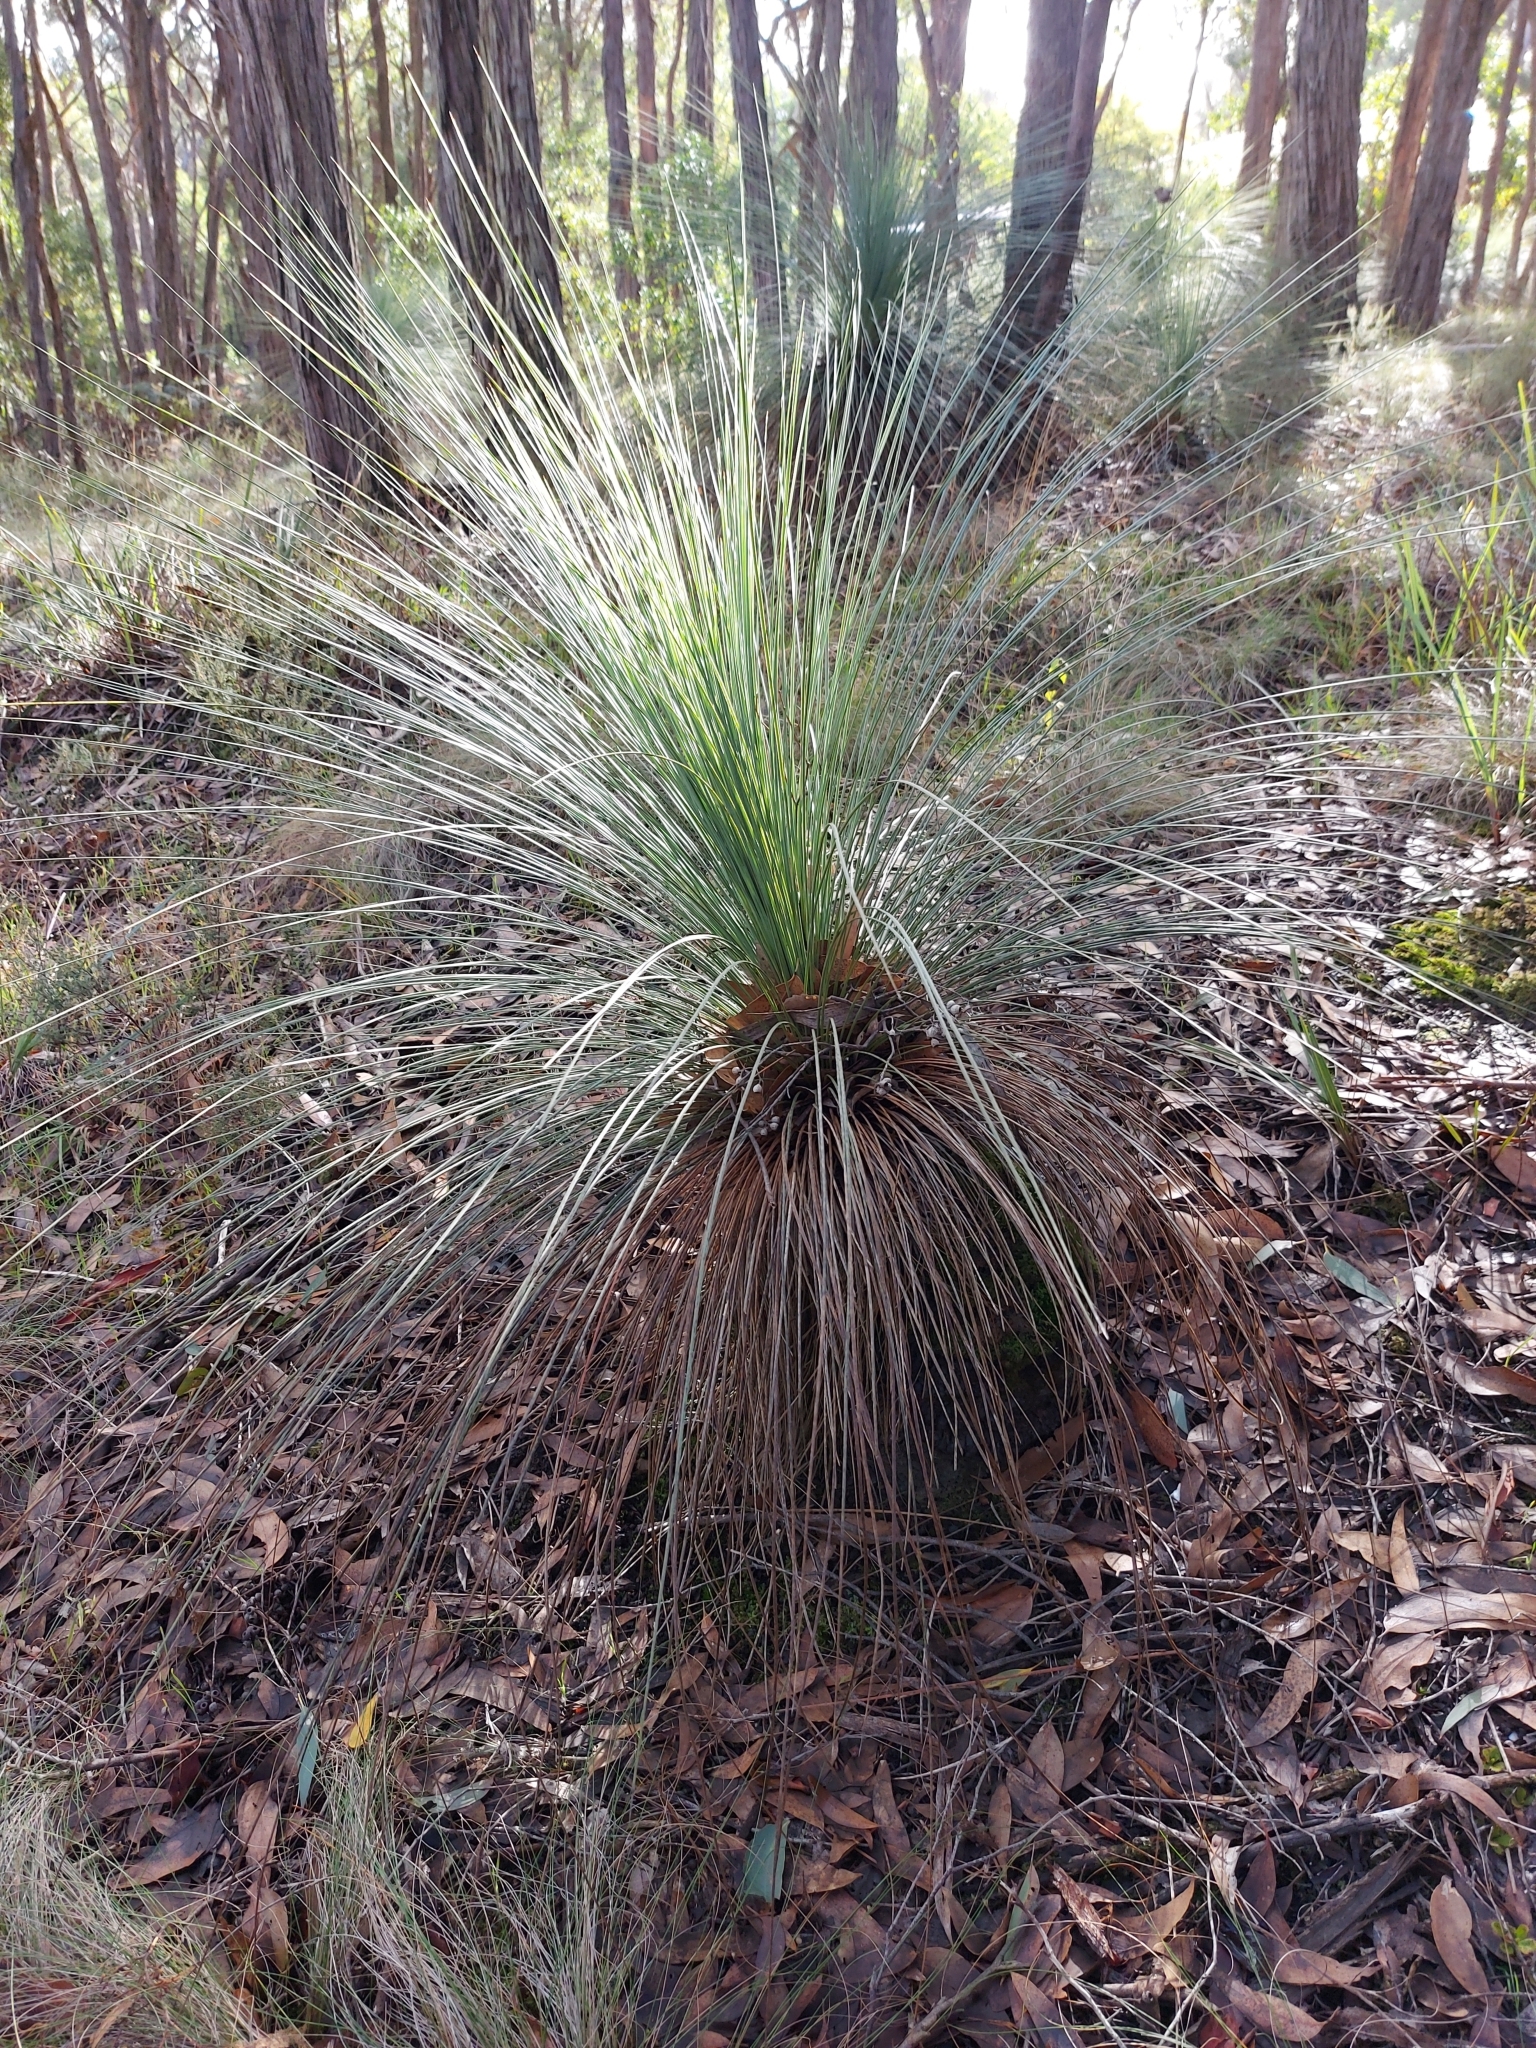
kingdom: Plantae
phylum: Tracheophyta
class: Liliopsida
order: Asparagales
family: Asphodelaceae
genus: Xanthorrhoea
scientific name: Xanthorrhoea australis
